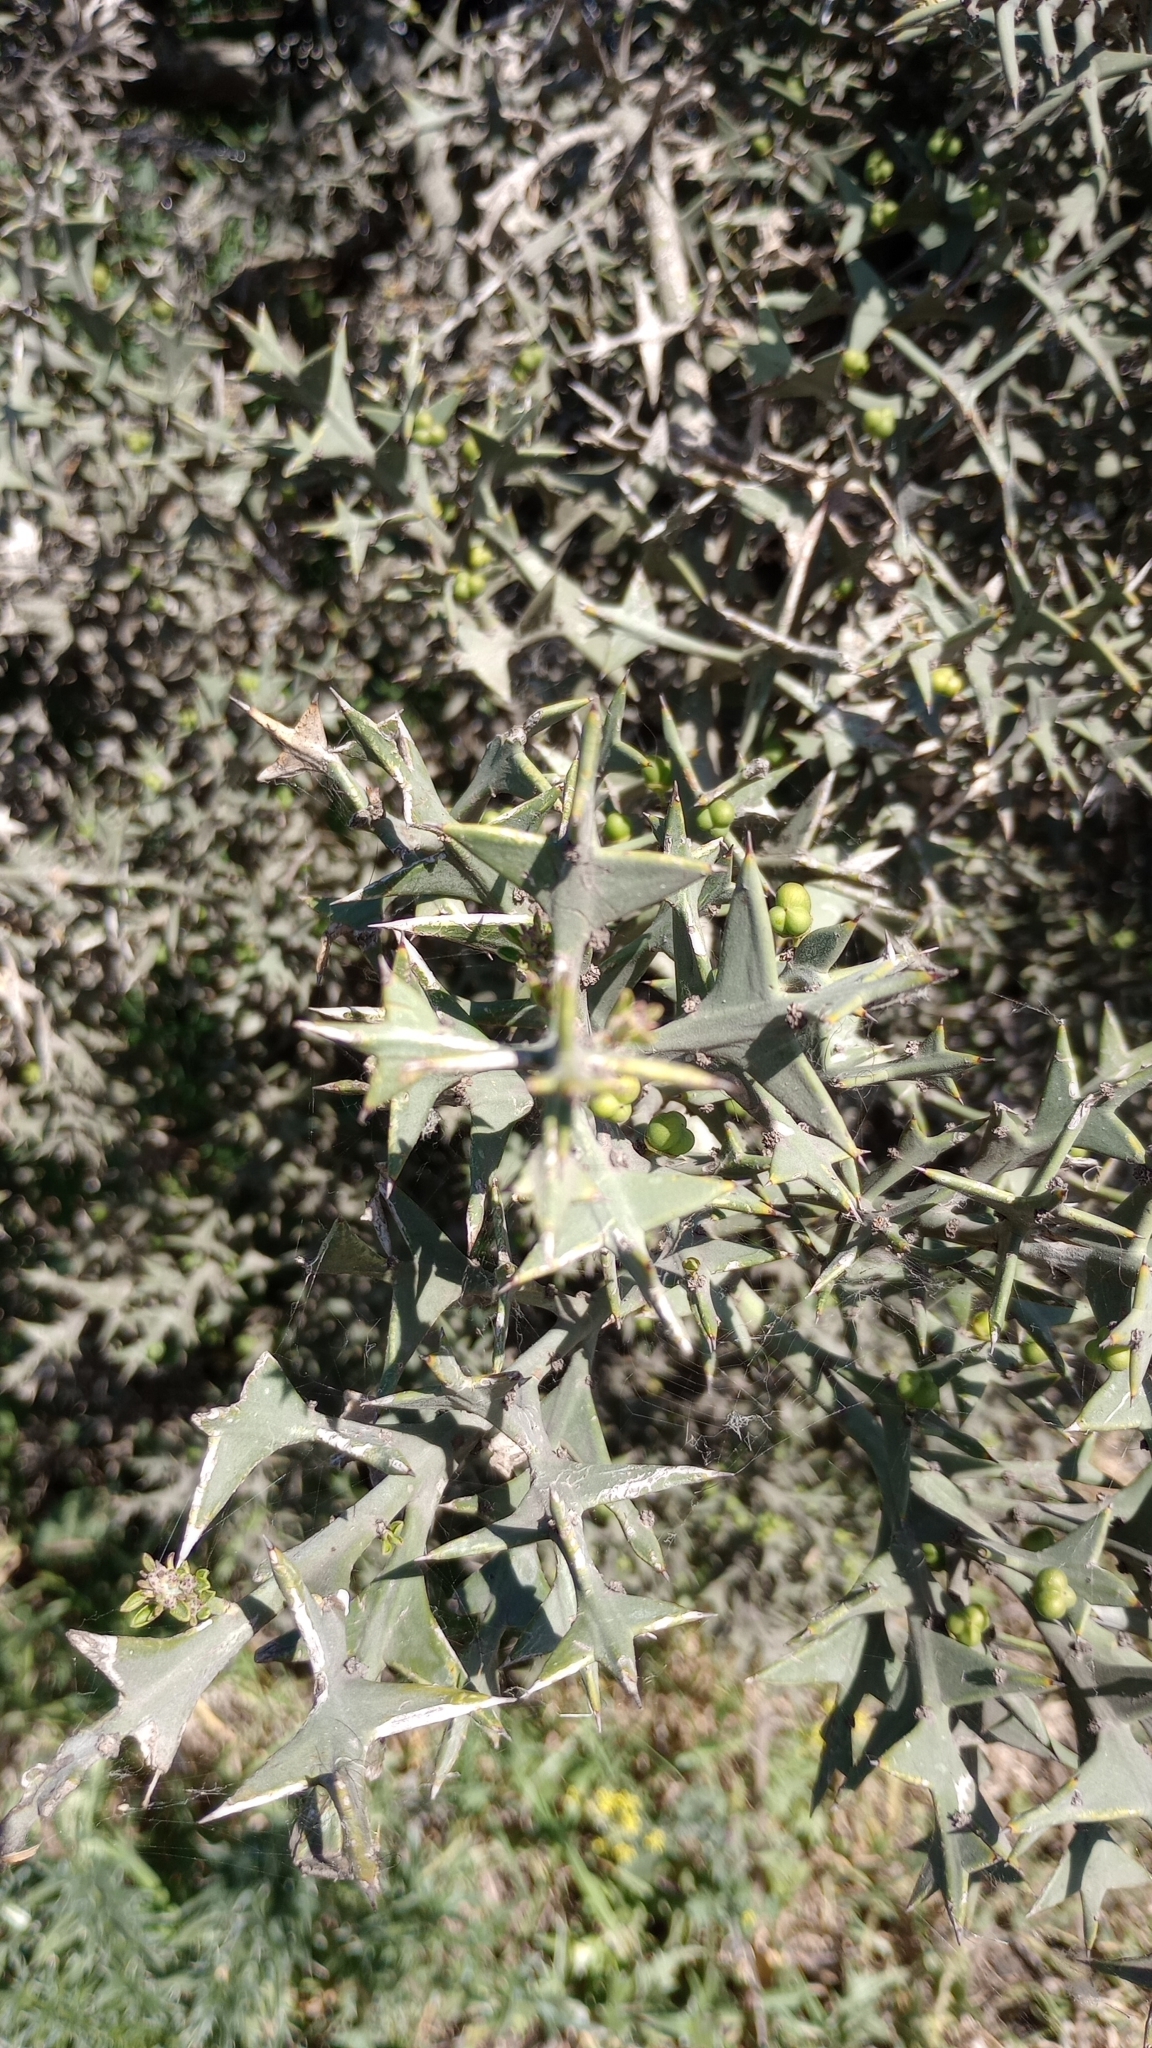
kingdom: Plantae
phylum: Tracheophyta
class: Magnoliopsida
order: Rosales
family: Rhamnaceae
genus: Colletia
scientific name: Colletia paradoxa
